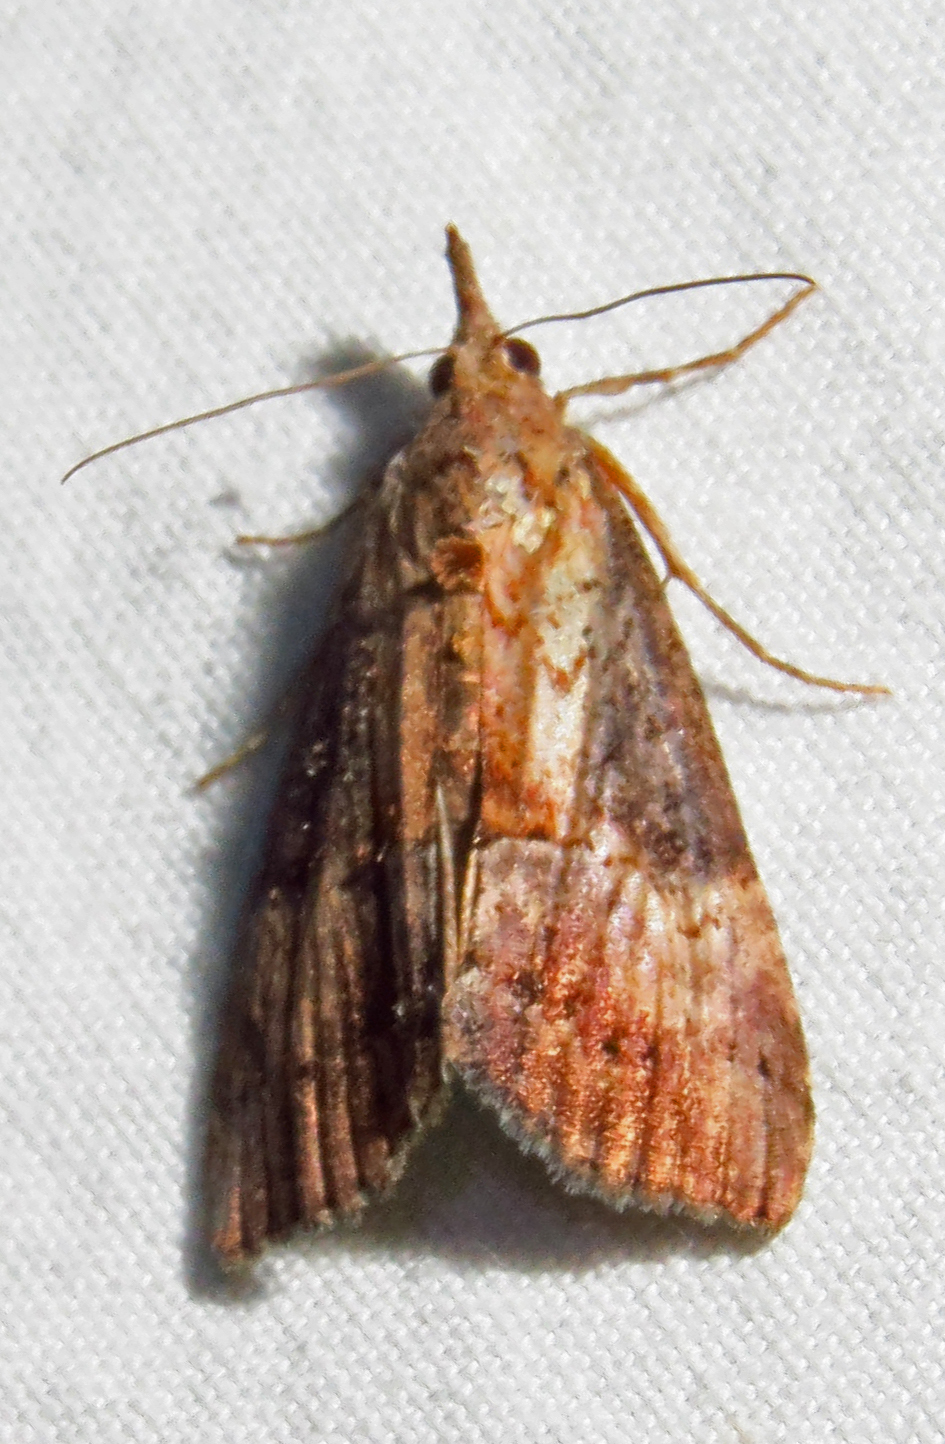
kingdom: Animalia
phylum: Arthropoda
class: Insecta
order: Lepidoptera
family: Erebidae
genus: Hypena
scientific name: Hypena scabra
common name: Green cloverworm
